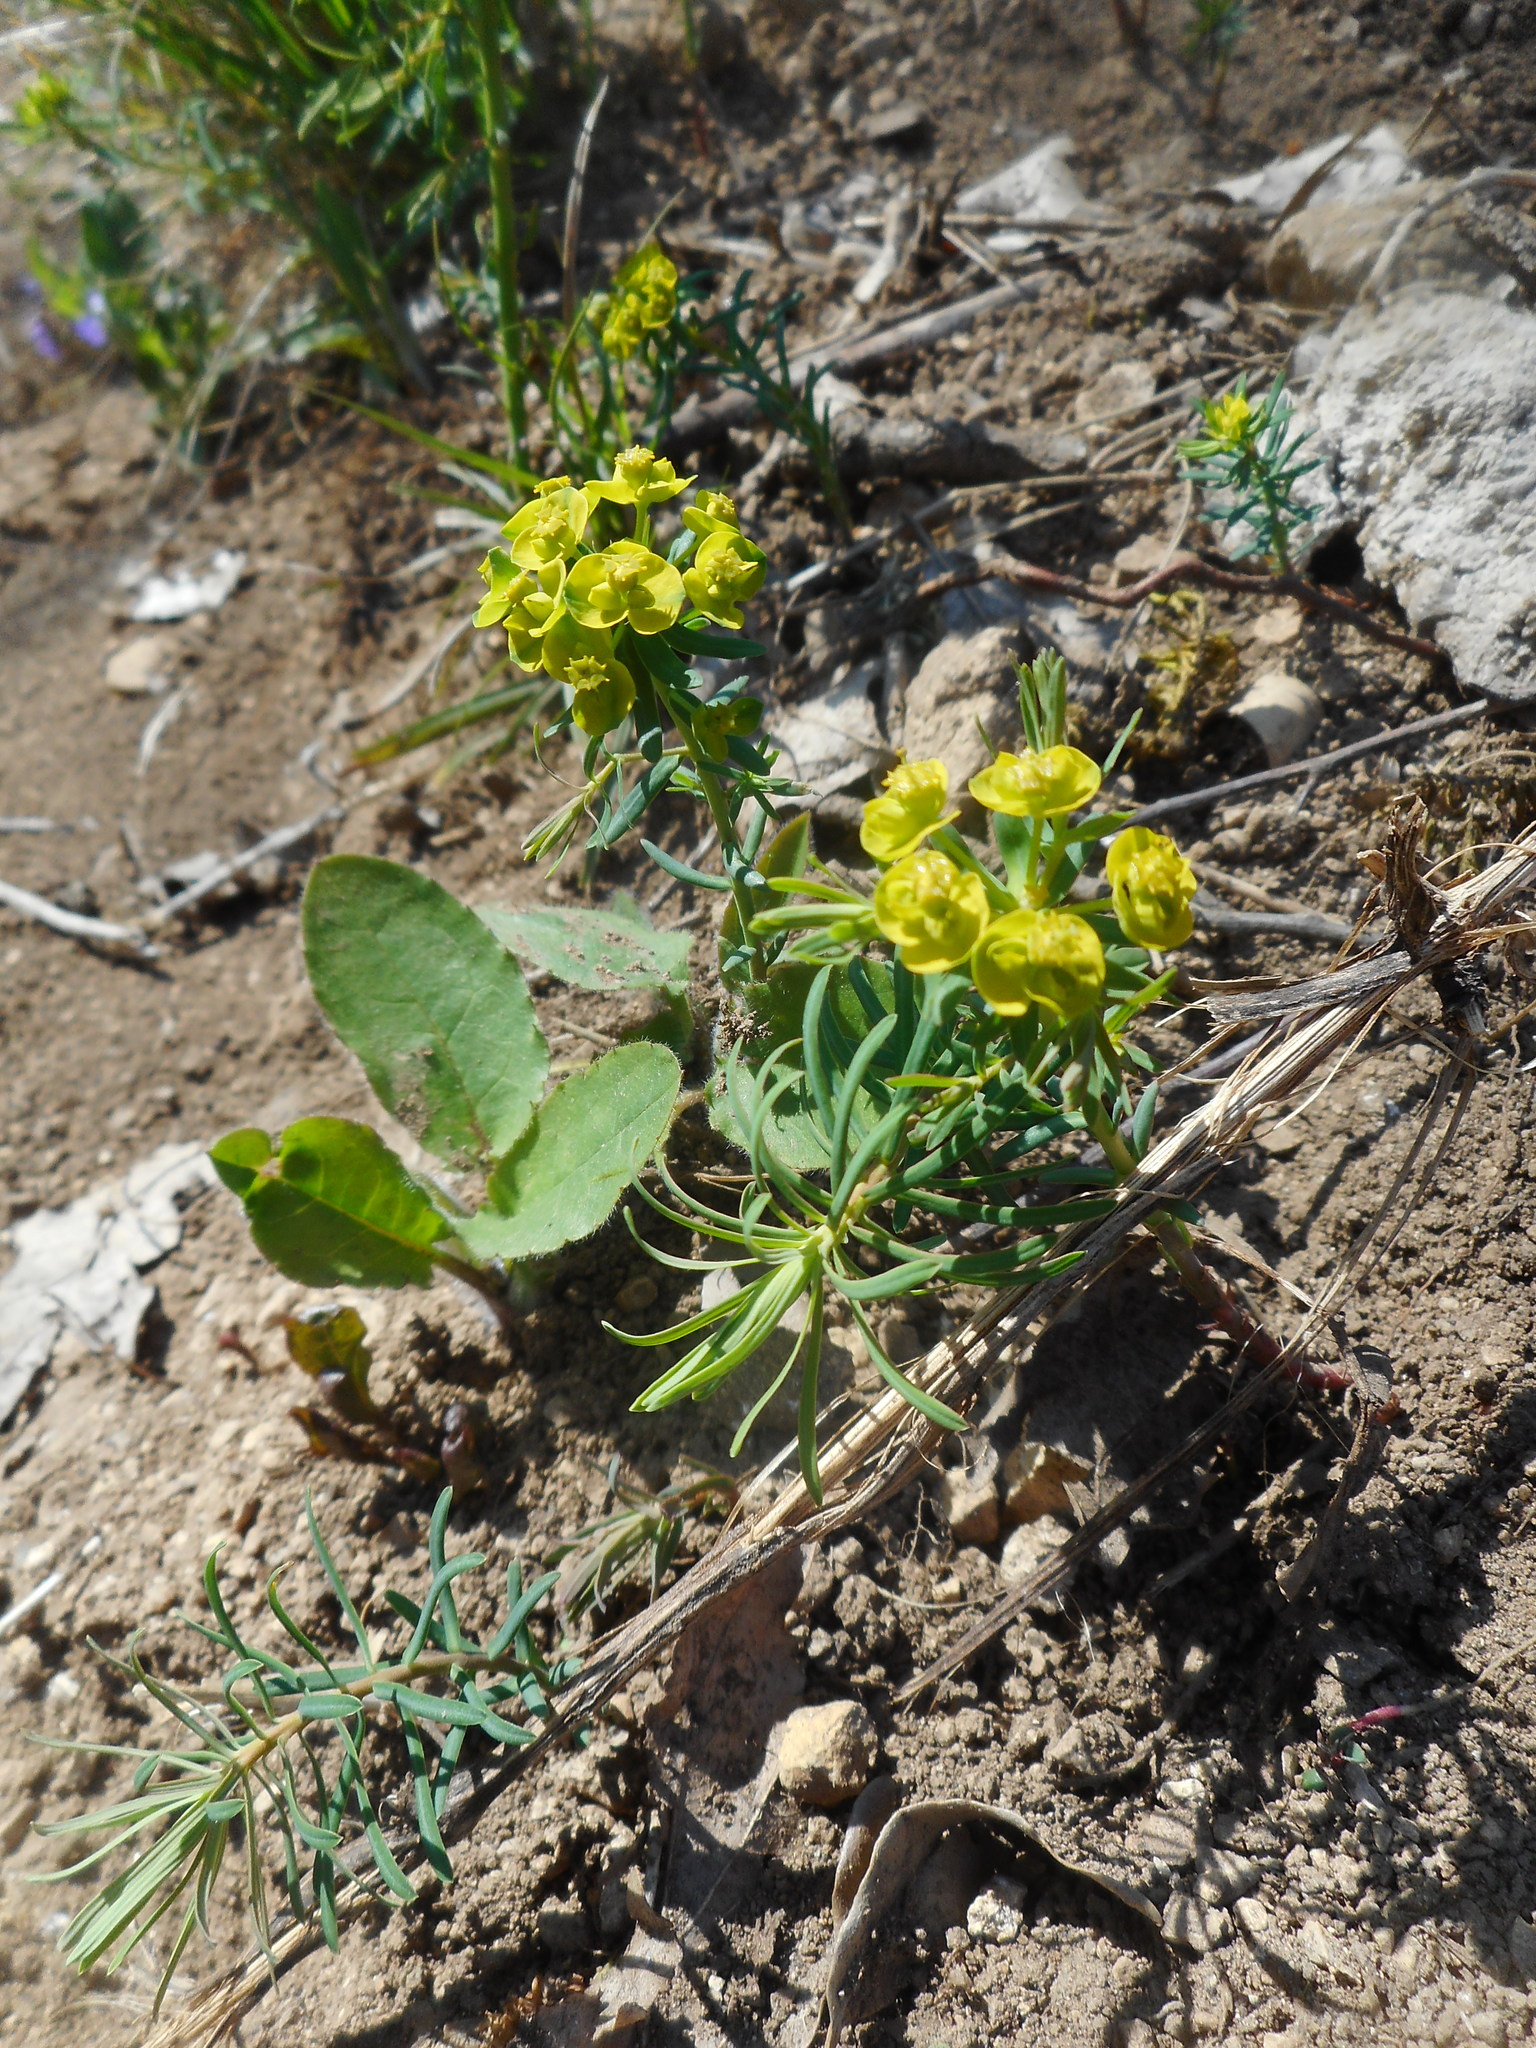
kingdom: Plantae
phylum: Tracheophyta
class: Magnoliopsida
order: Malpighiales
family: Euphorbiaceae
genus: Euphorbia
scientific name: Euphorbia cyparissias
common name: Cypress spurge
